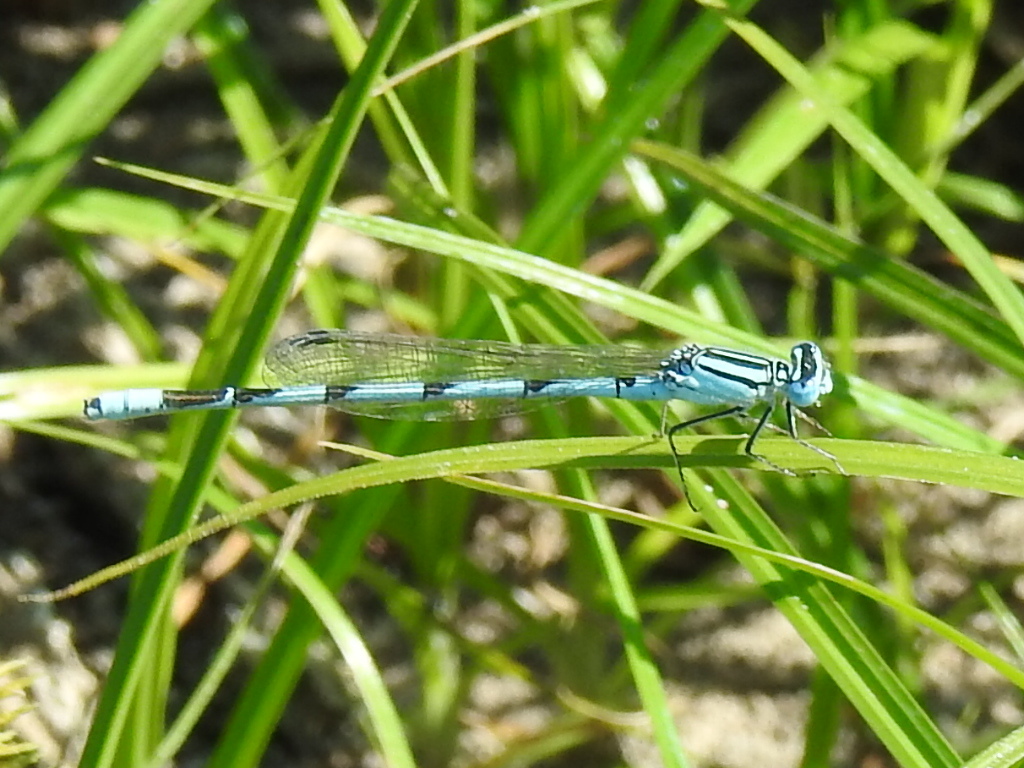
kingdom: Animalia
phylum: Arthropoda
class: Insecta
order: Odonata
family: Coenagrionidae
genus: Enallagma
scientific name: Enallagma durum
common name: Big bluet
